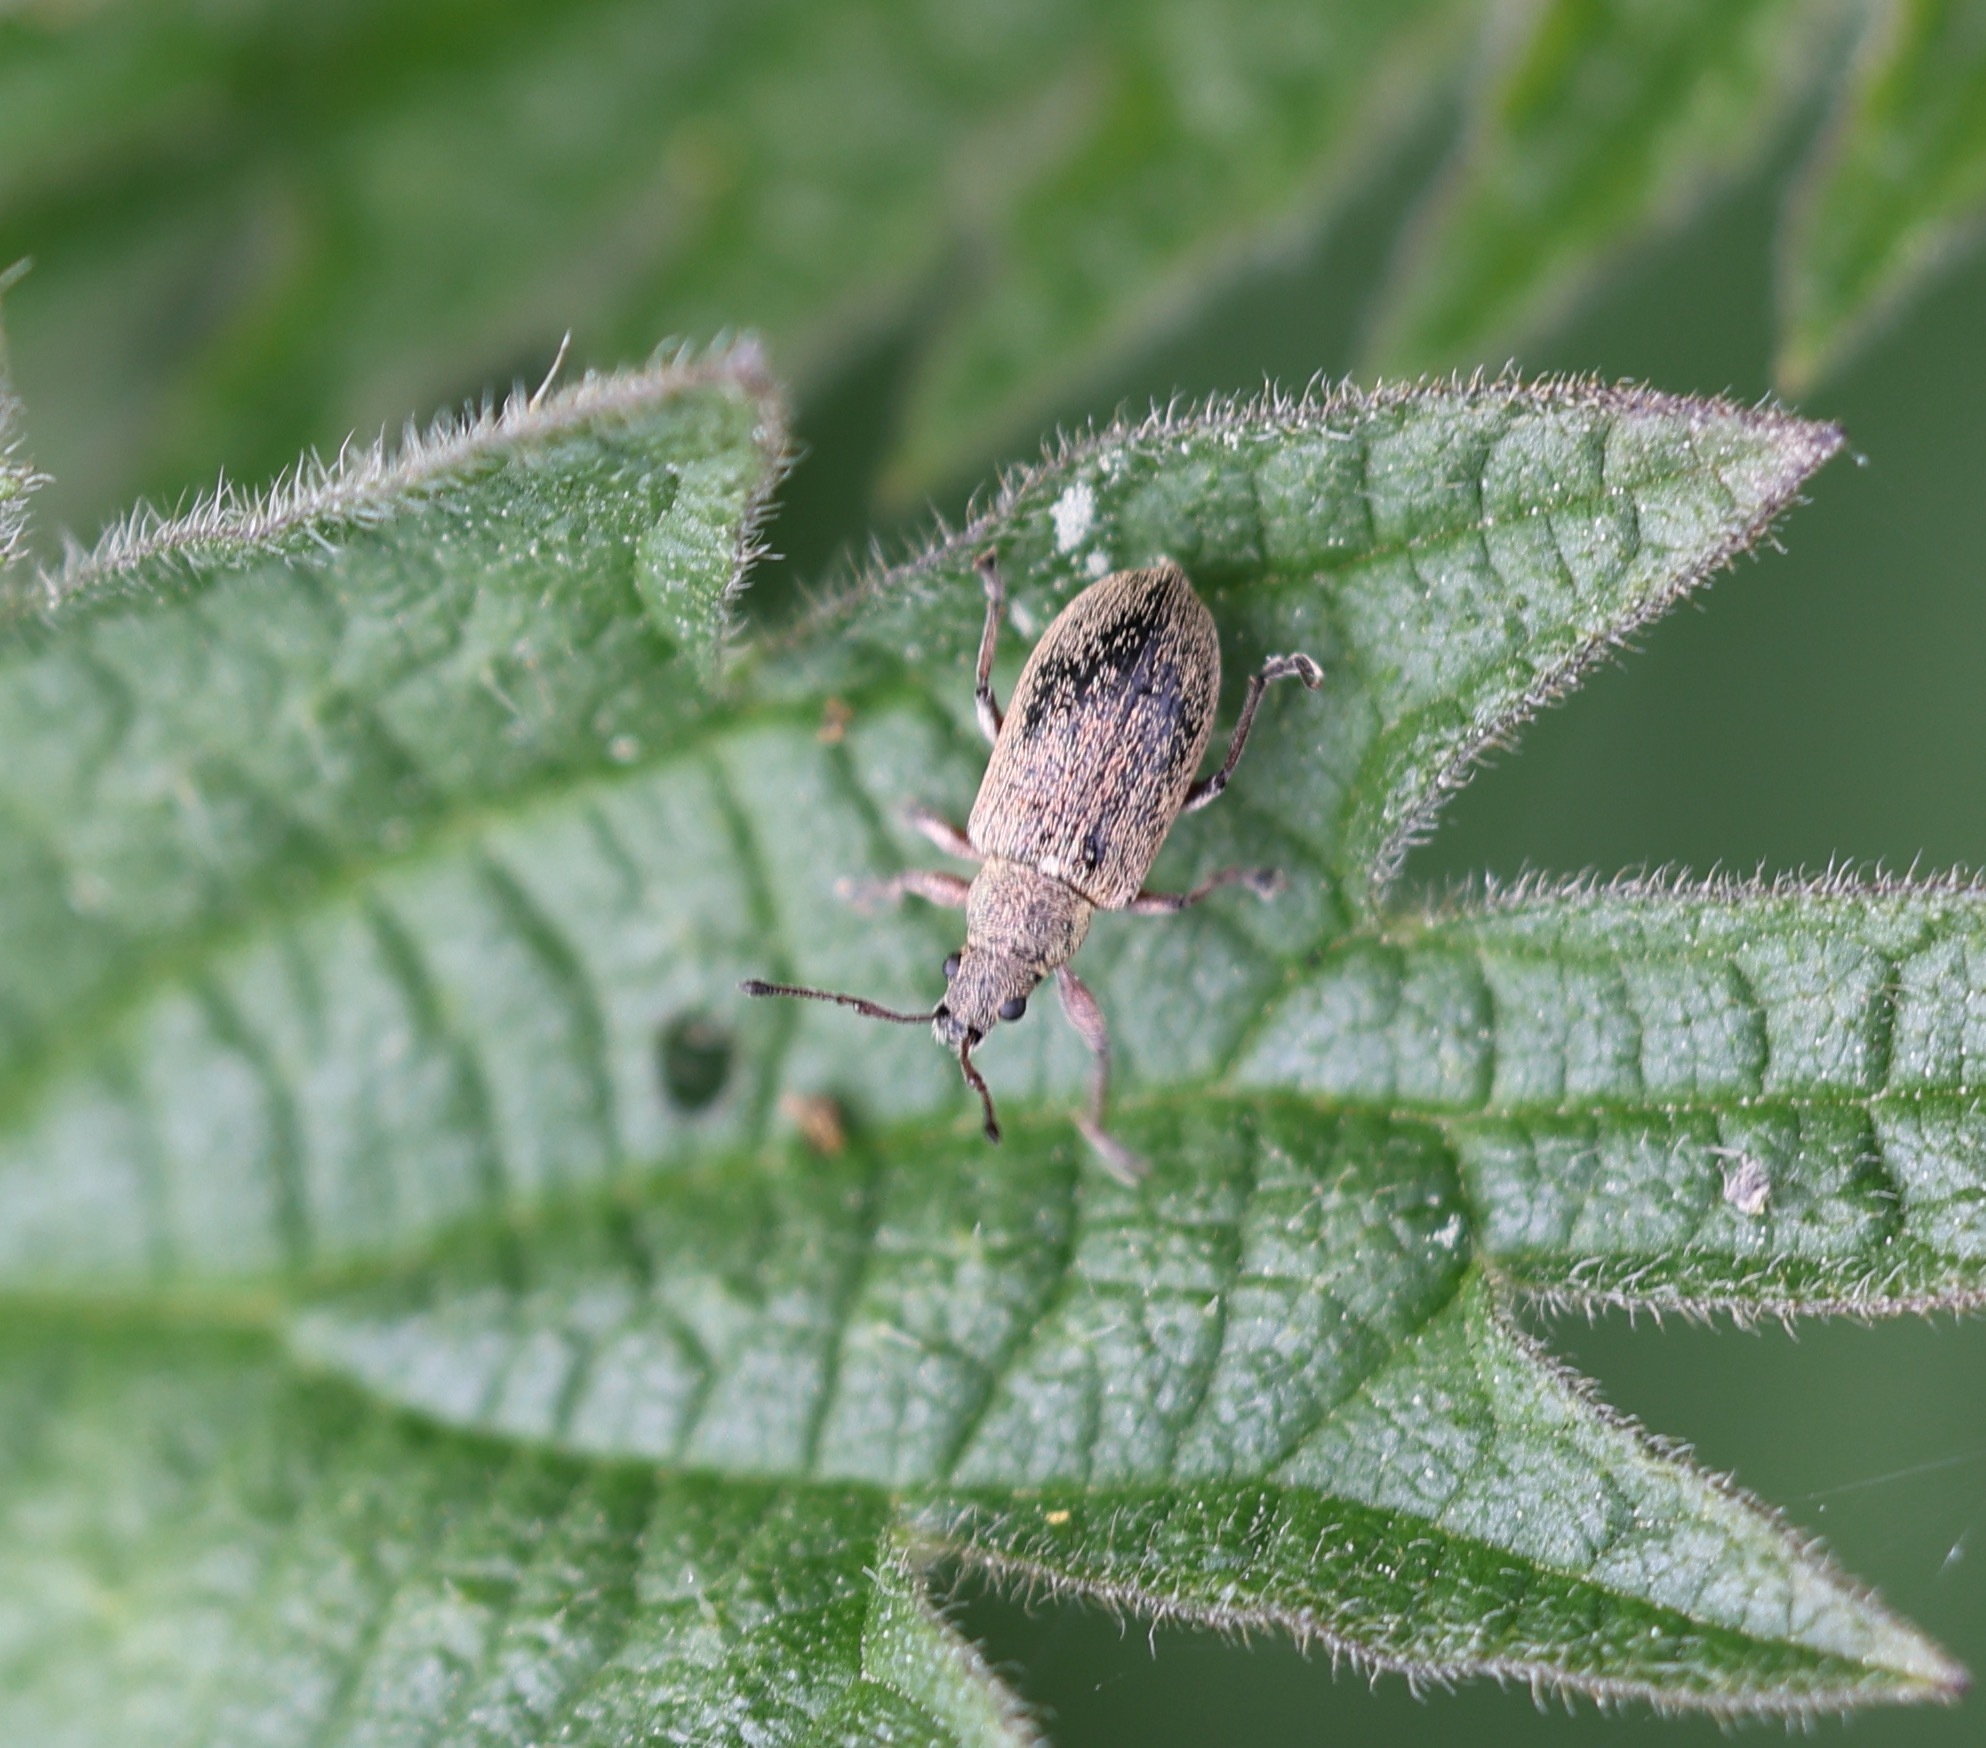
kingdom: Animalia
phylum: Arthropoda
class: Insecta
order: Coleoptera
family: Curculionidae
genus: Phyllobius
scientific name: Phyllobius pyri
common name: Common leaf weevil
